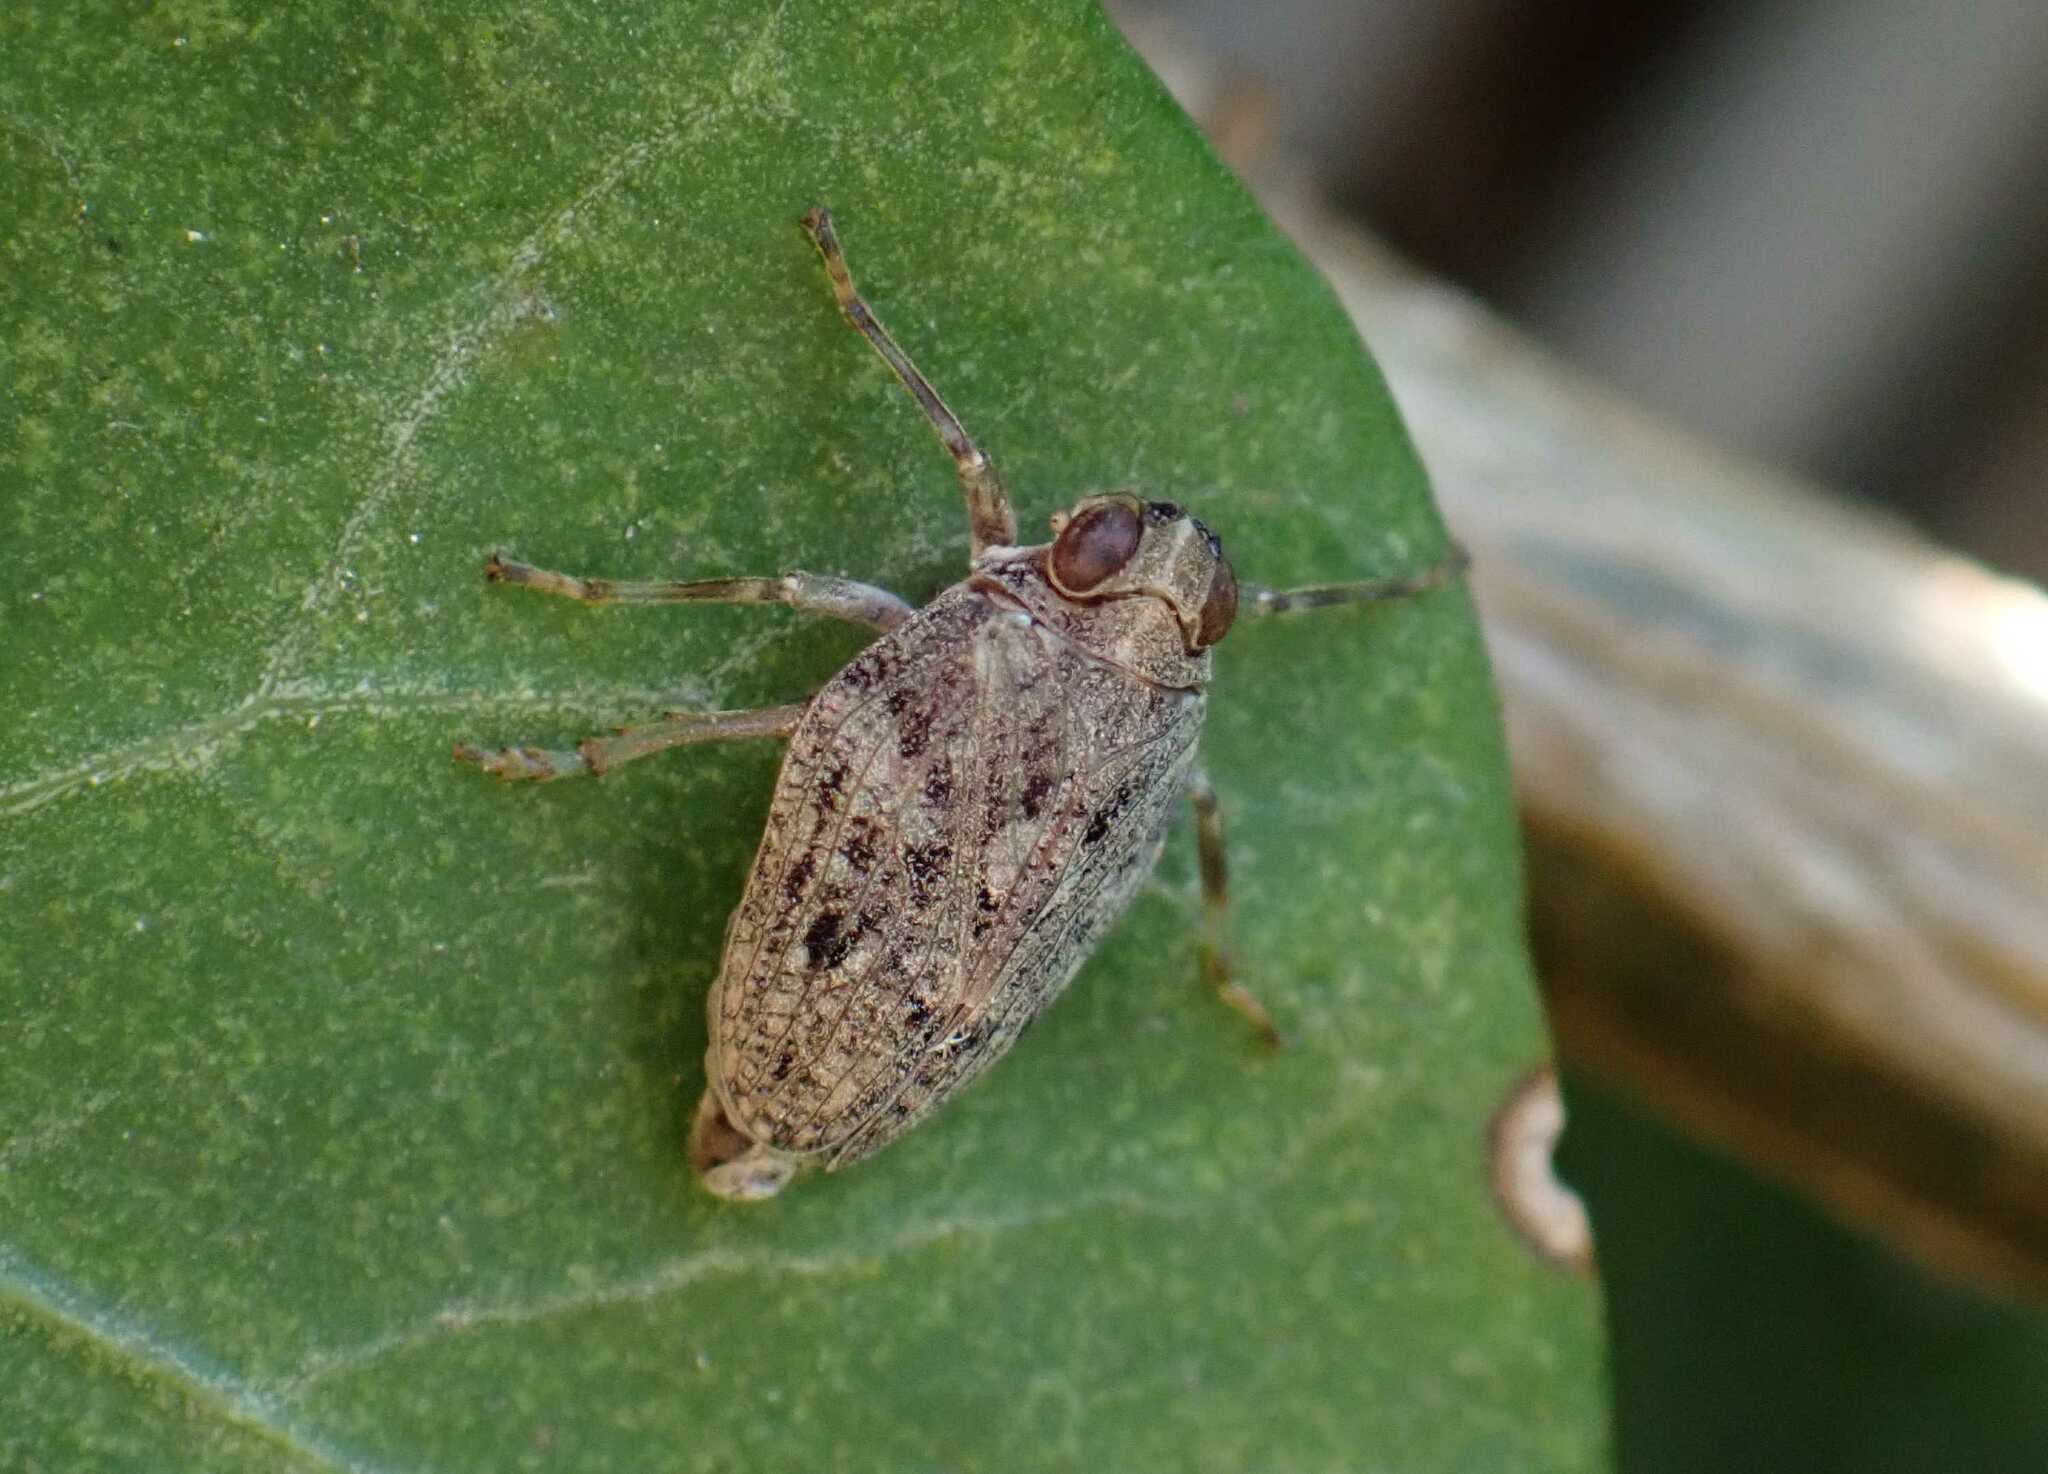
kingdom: Animalia
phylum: Arthropoda
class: Insecta
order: Hemiptera
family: Issidae
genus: Issus
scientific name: Issus coleoptratus
